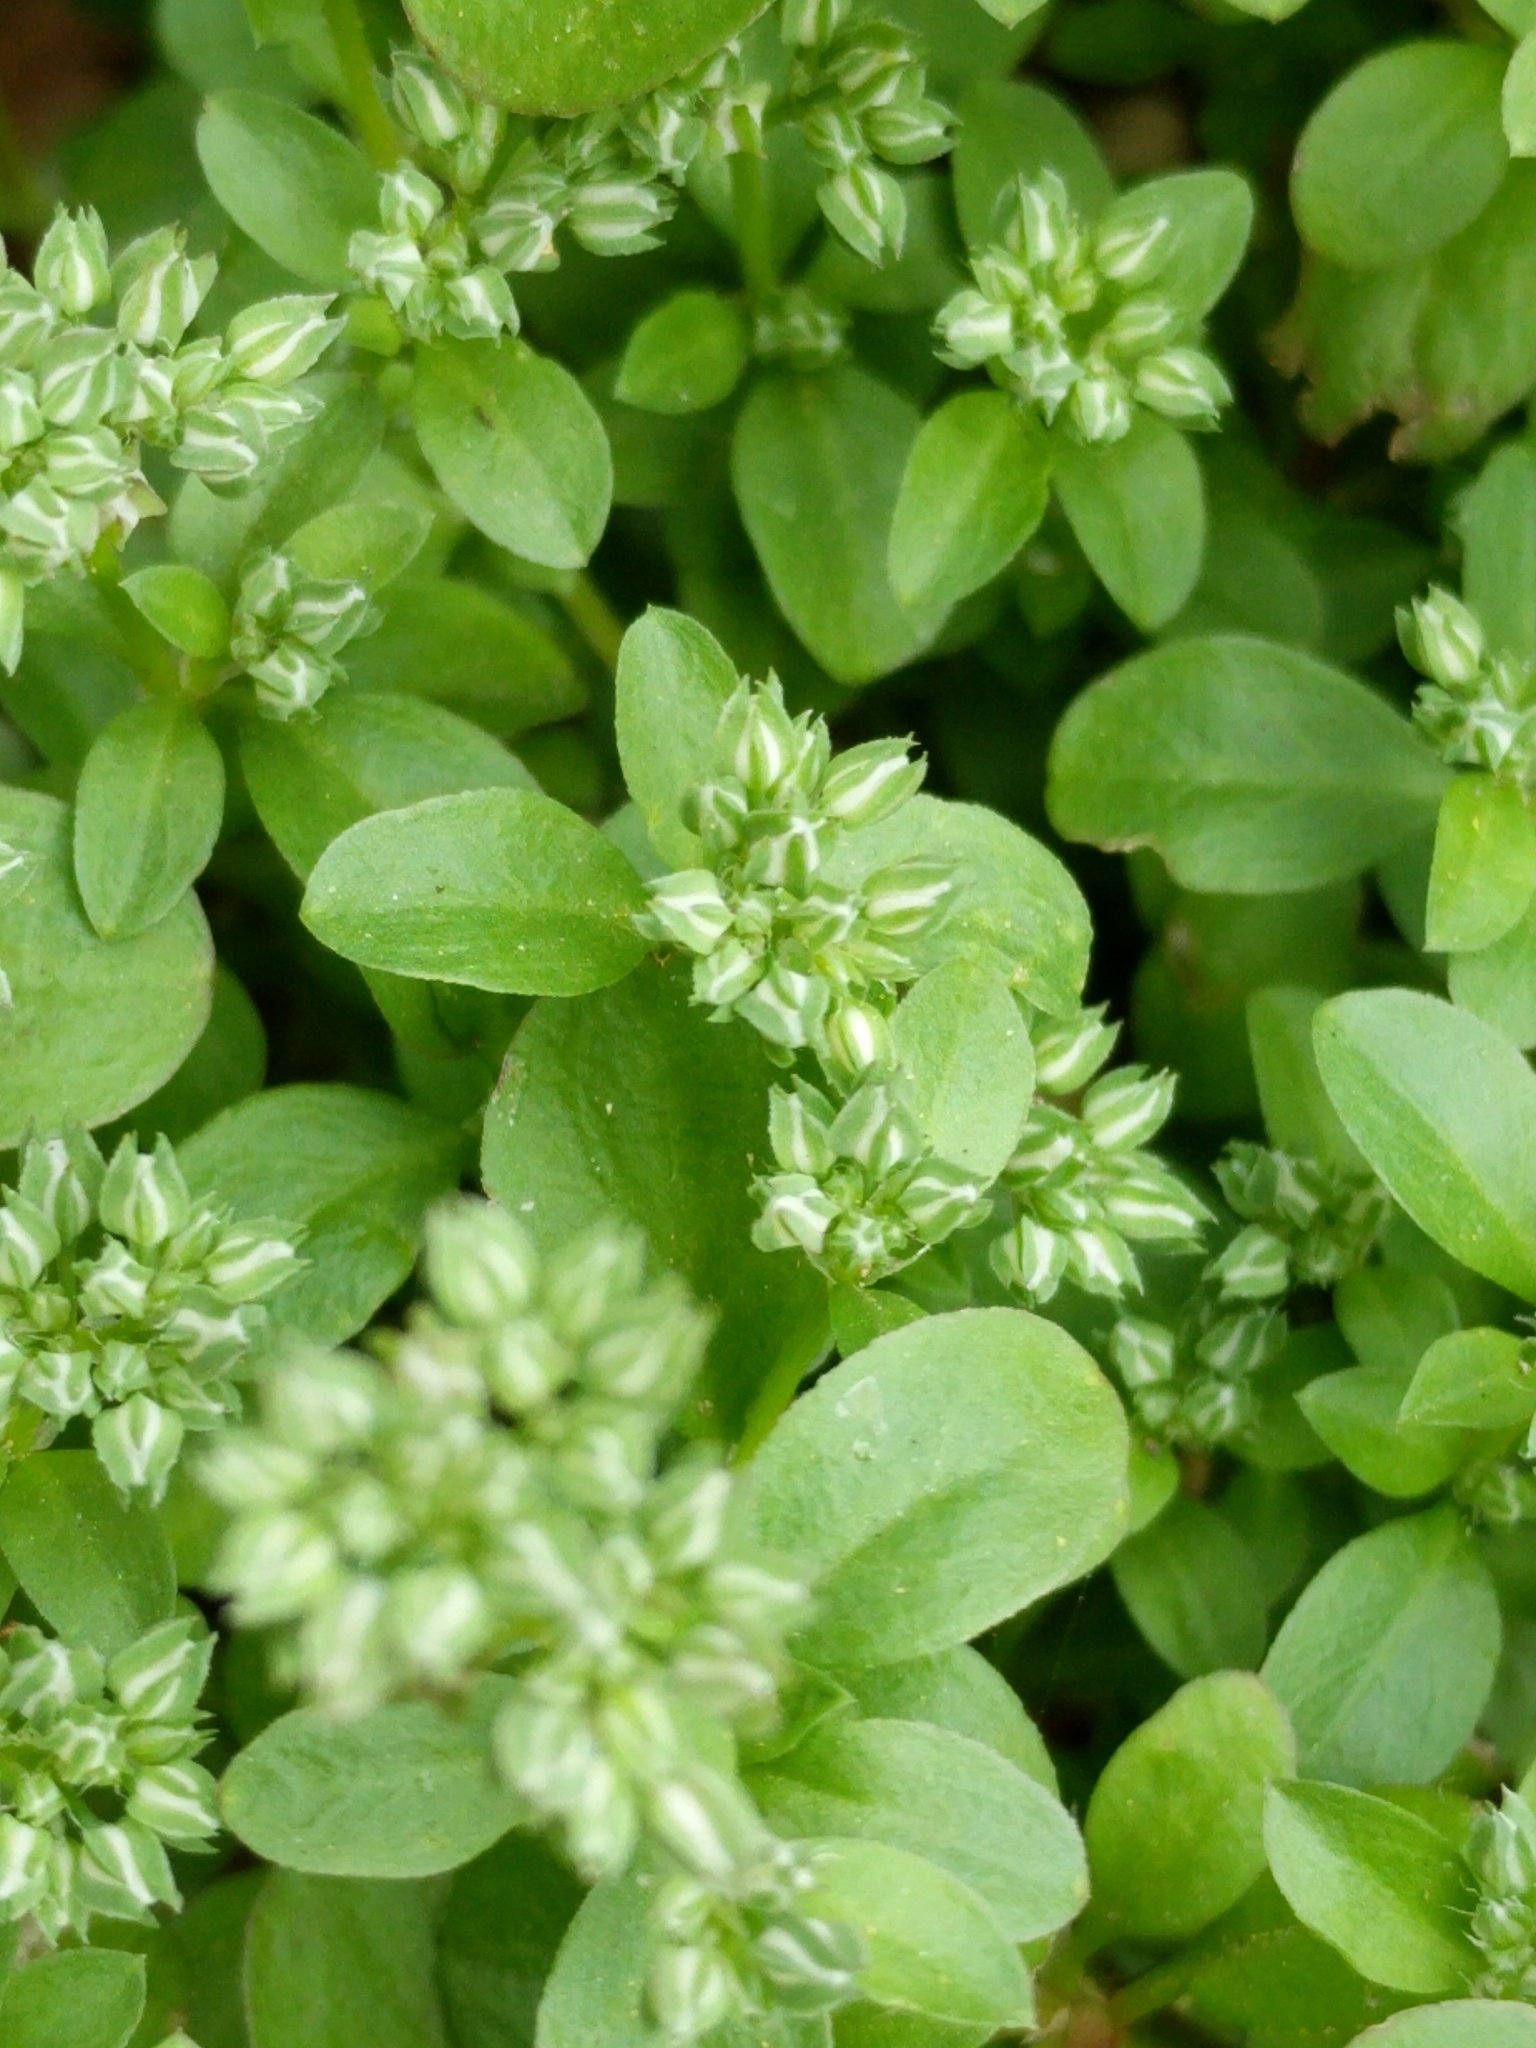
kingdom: Plantae
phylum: Tracheophyta
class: Magnoliopsida
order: Caryophyllales
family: Caryophyllaceae
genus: Polycarpon
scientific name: Polycarpon tetraphyllum
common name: Four-leaved all-seed
